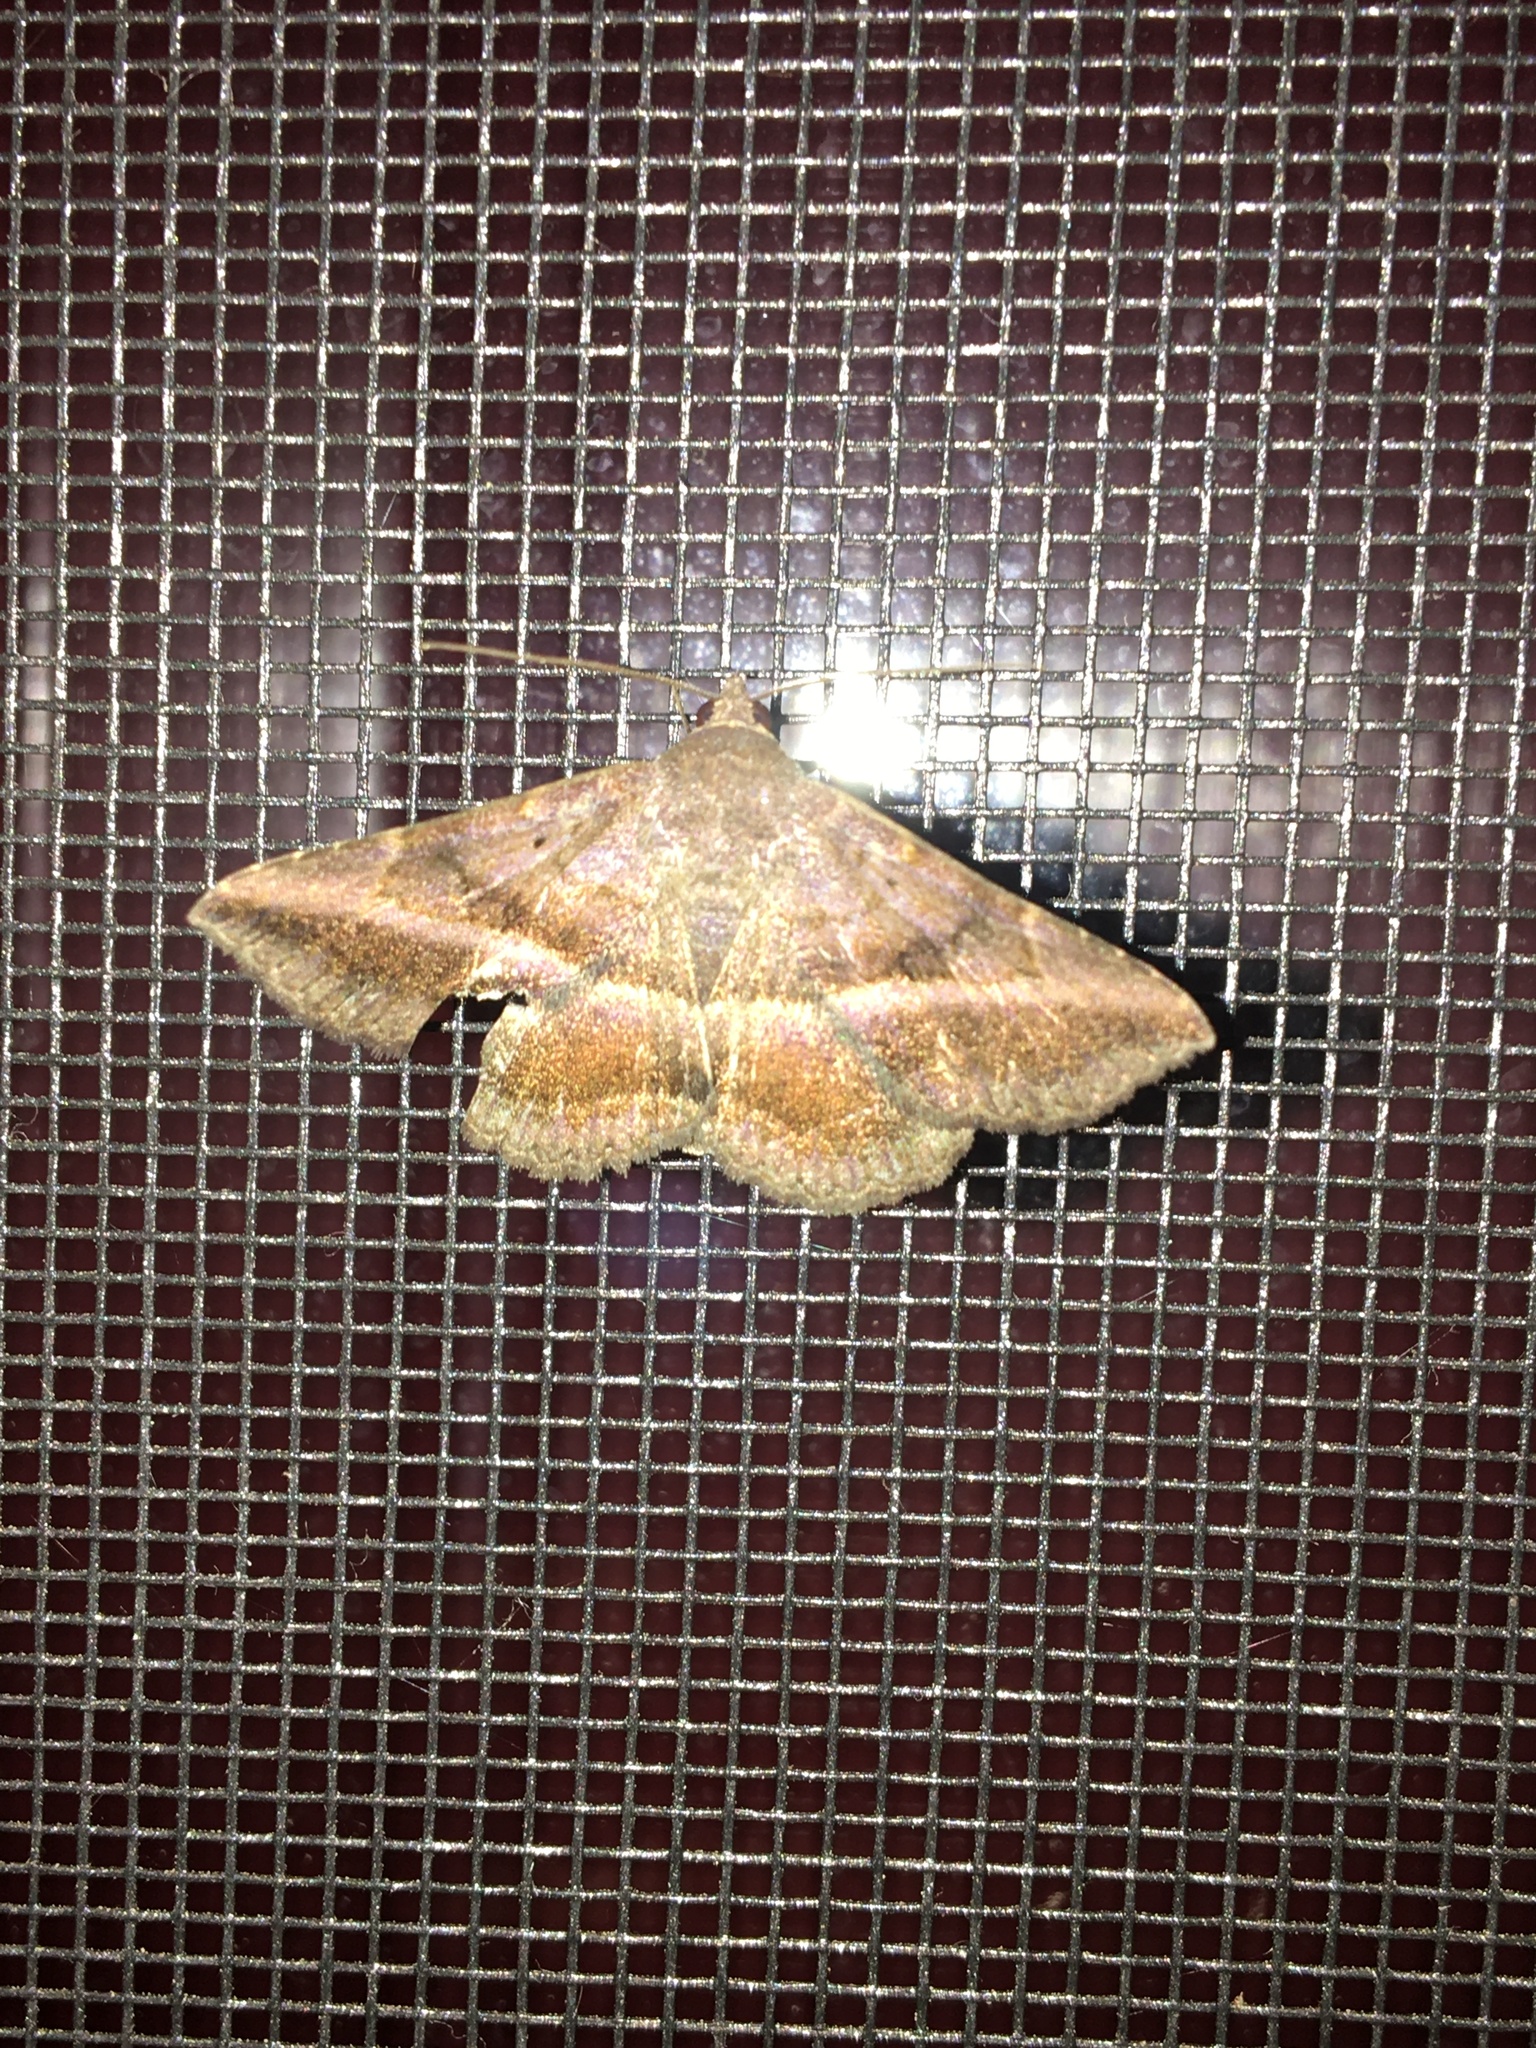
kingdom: Animalia
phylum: Arthropoda
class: Insecta
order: Lepidoptera
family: Erebidae
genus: Lesmone
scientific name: Lesmone detrahens
